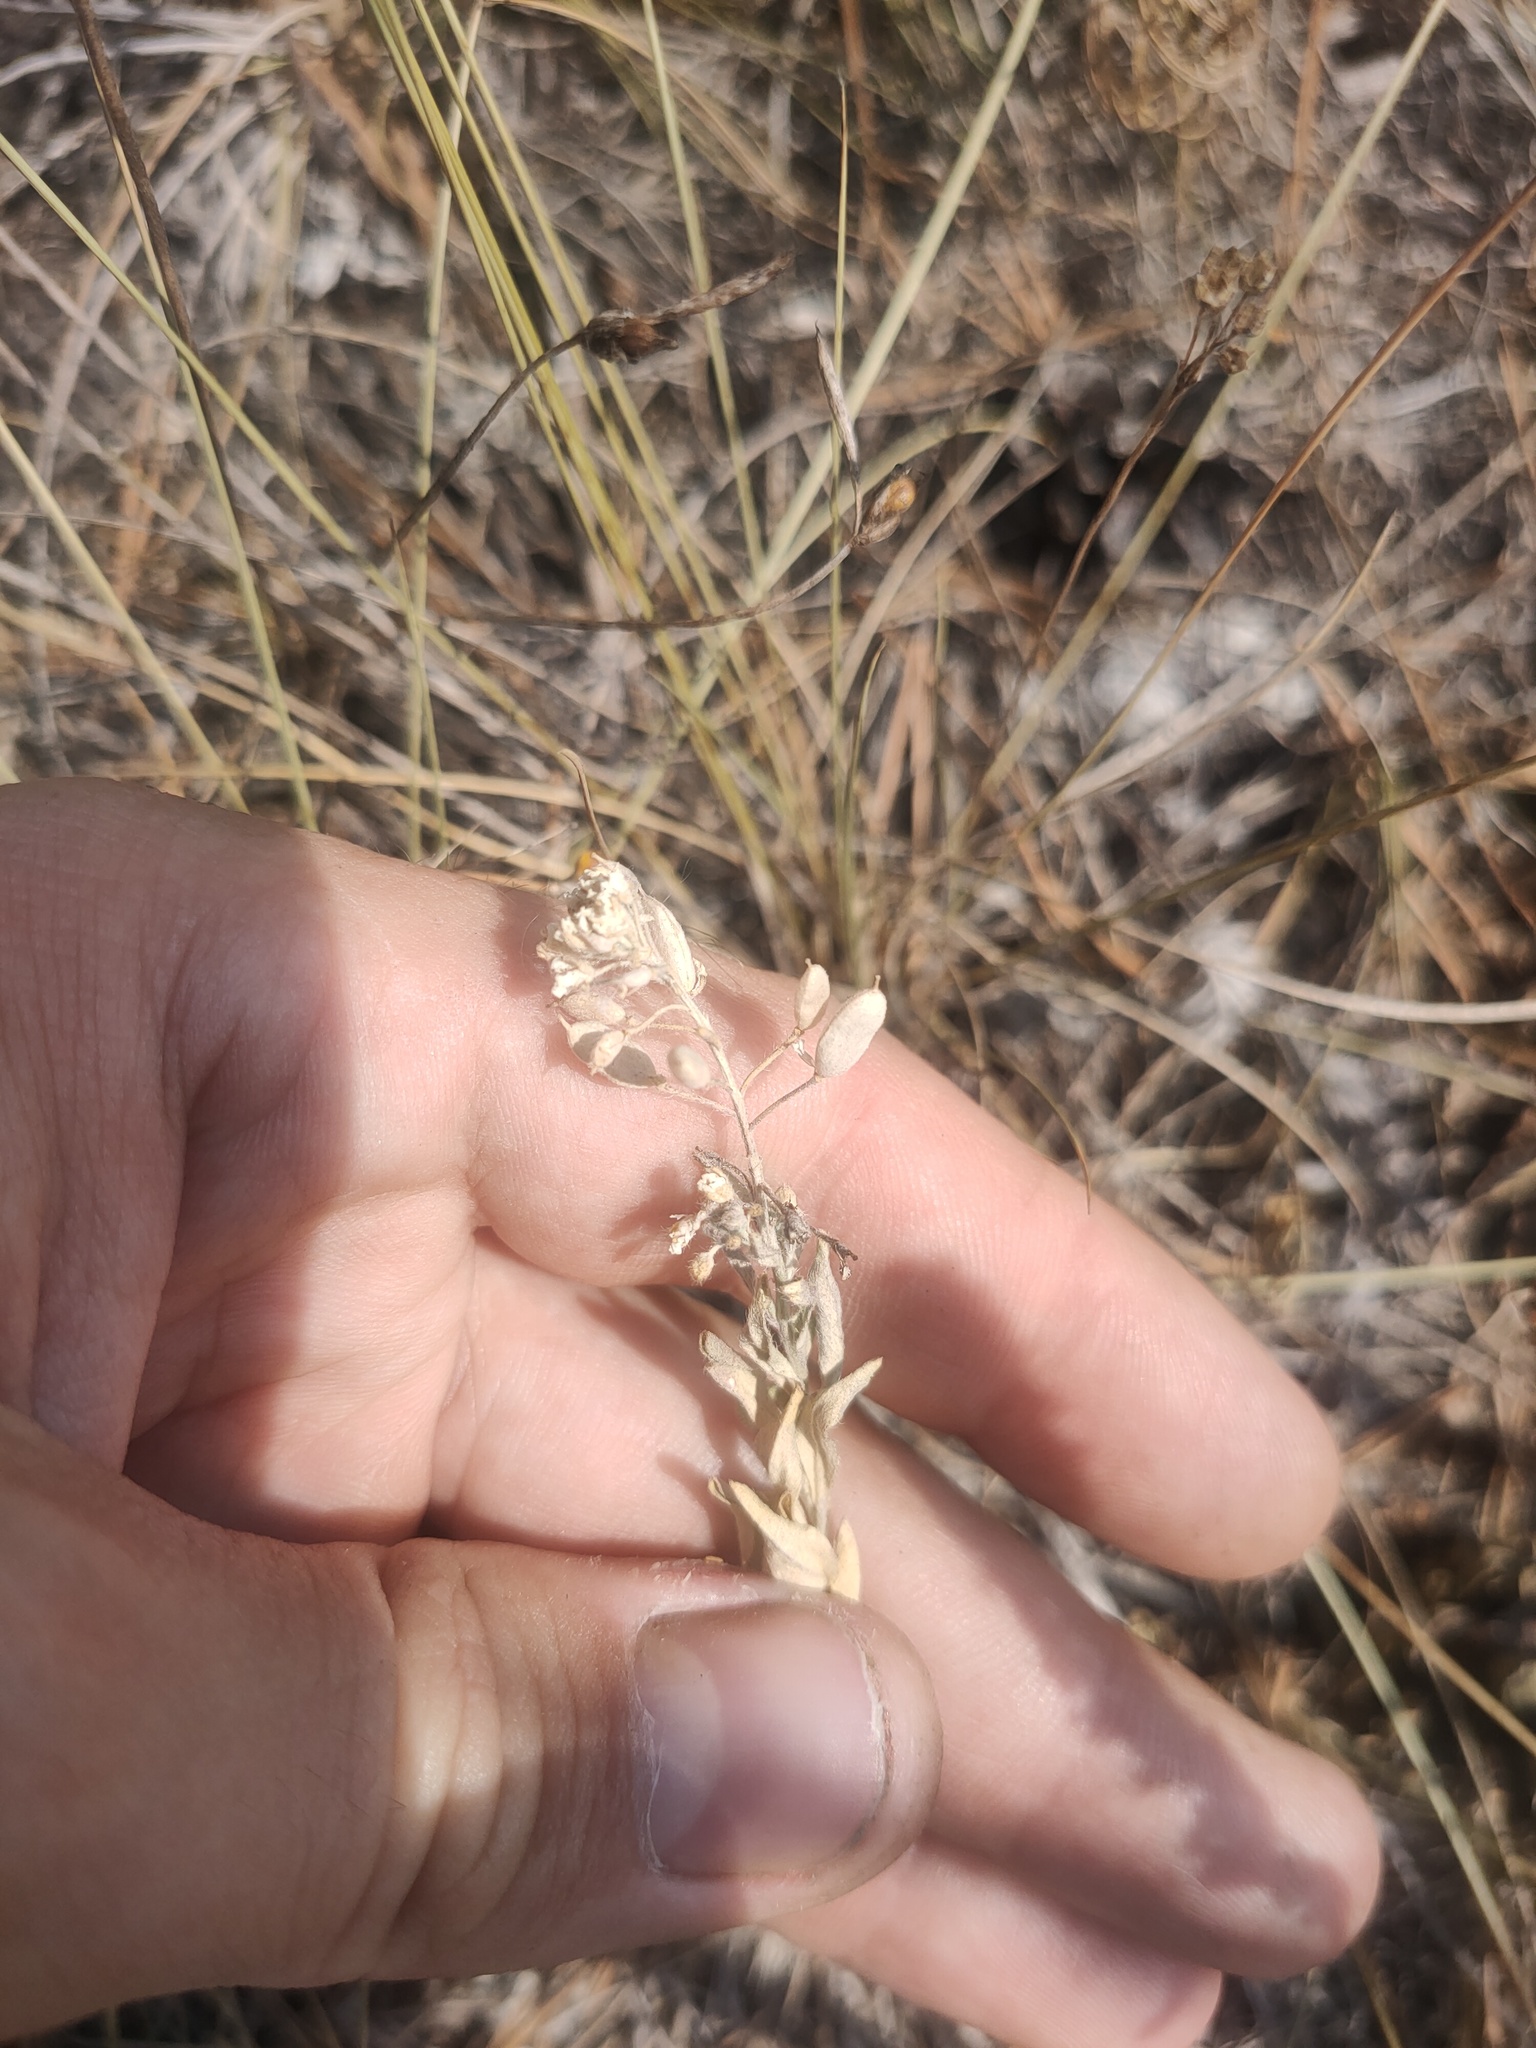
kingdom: Plantae
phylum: Tracheophyta
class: Magnoliopsida
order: Brassicales
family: Brassicaceae
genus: Berteroa
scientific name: Berteroa incana
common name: Hoary alison
